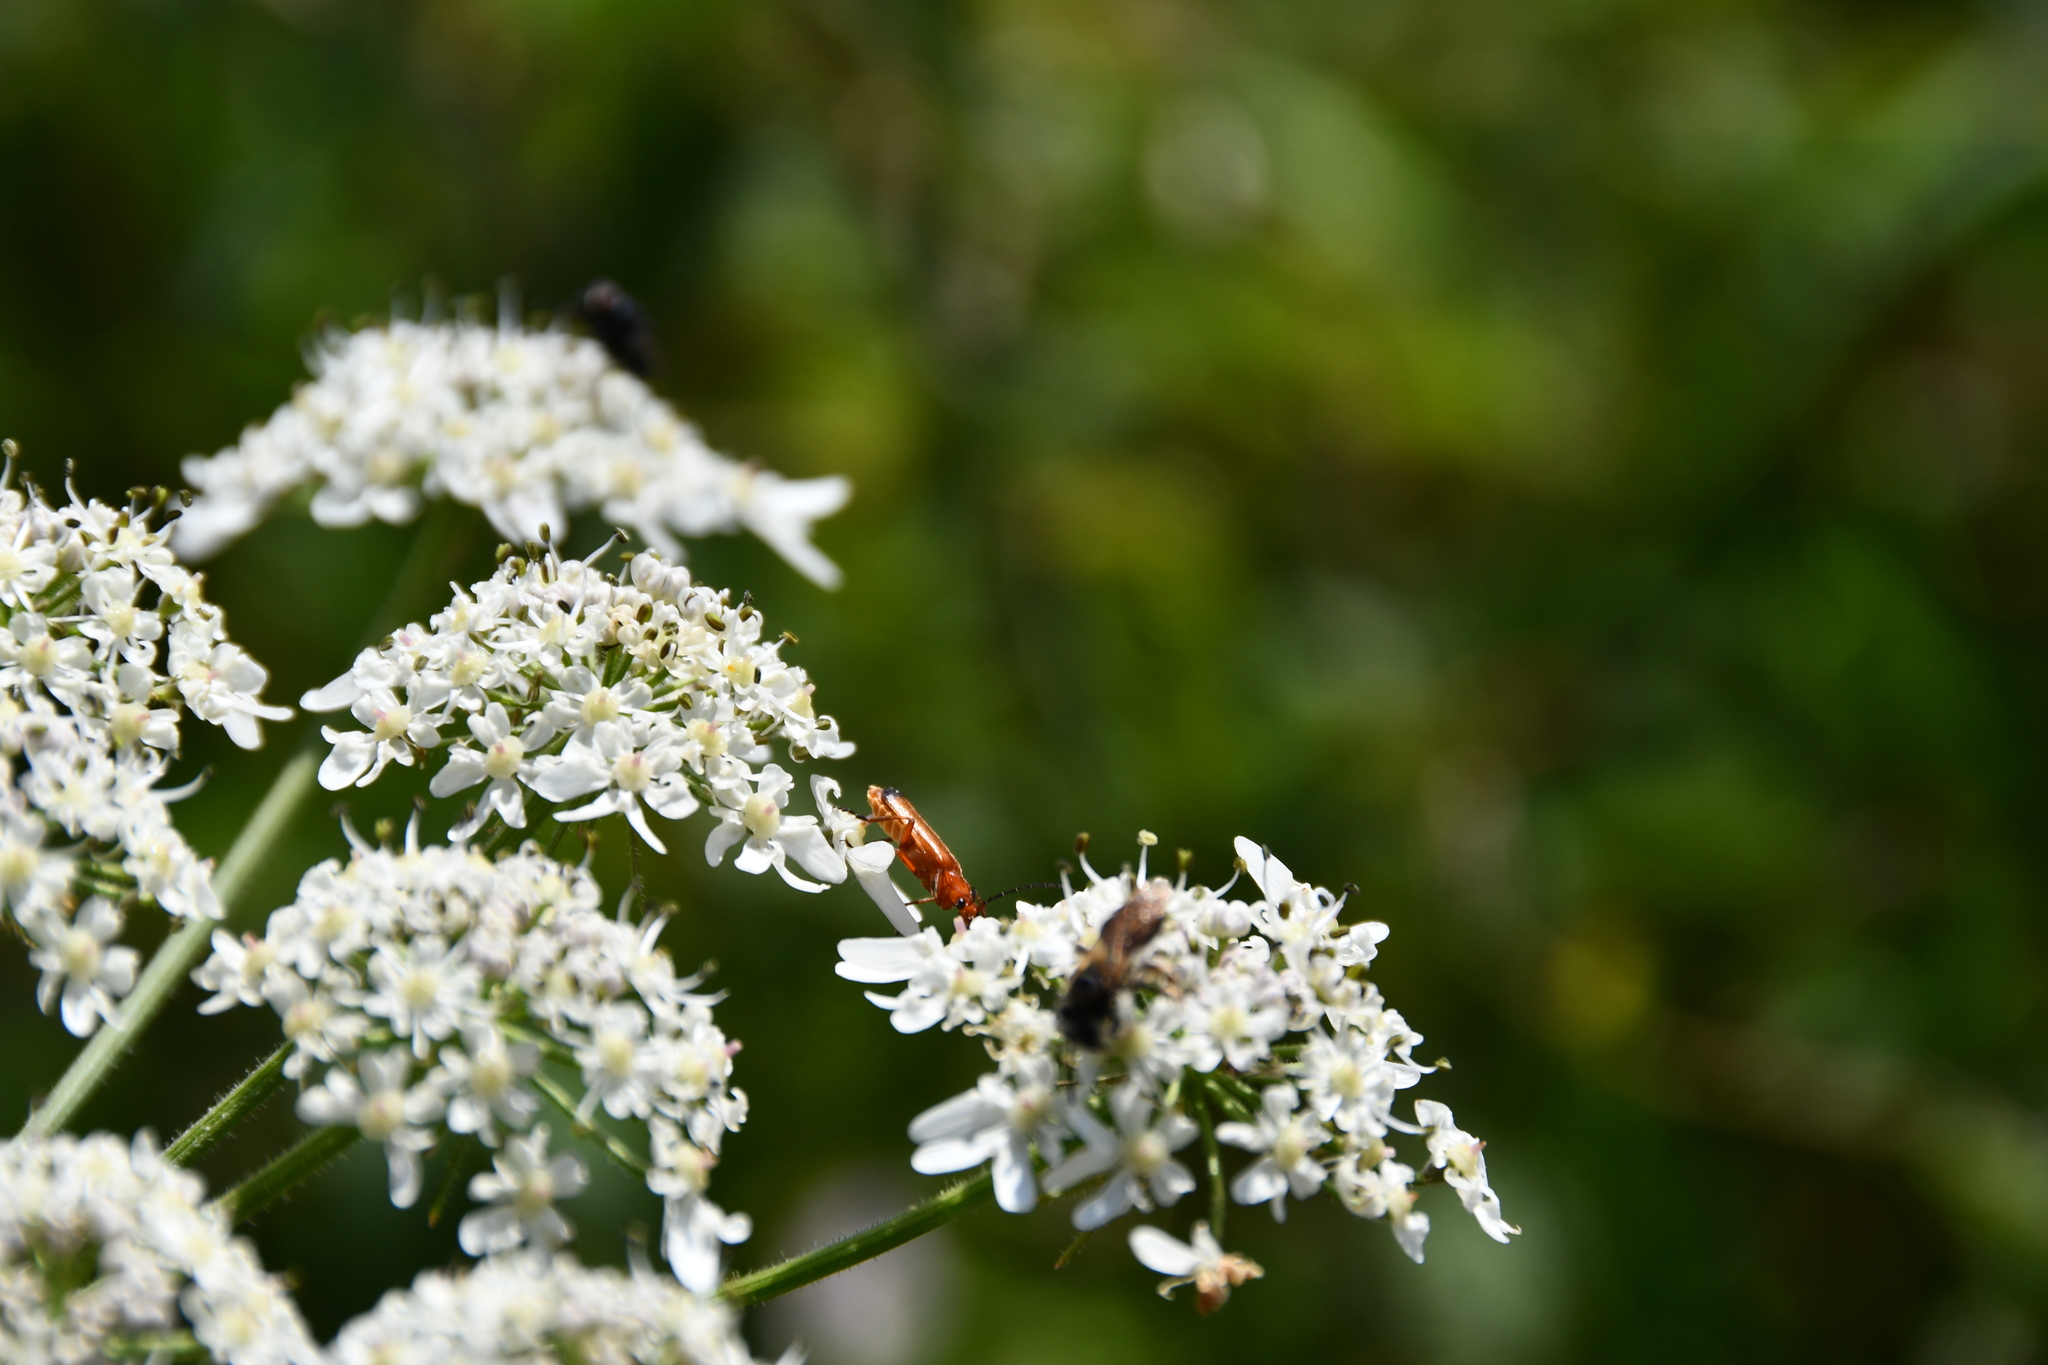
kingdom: Animalia
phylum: Arthropoda
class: Insecta
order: Coleoptera
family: Cantharidae
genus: Rhagonycha
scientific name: Rhagonycha fulva
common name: Common red soldier beetle
